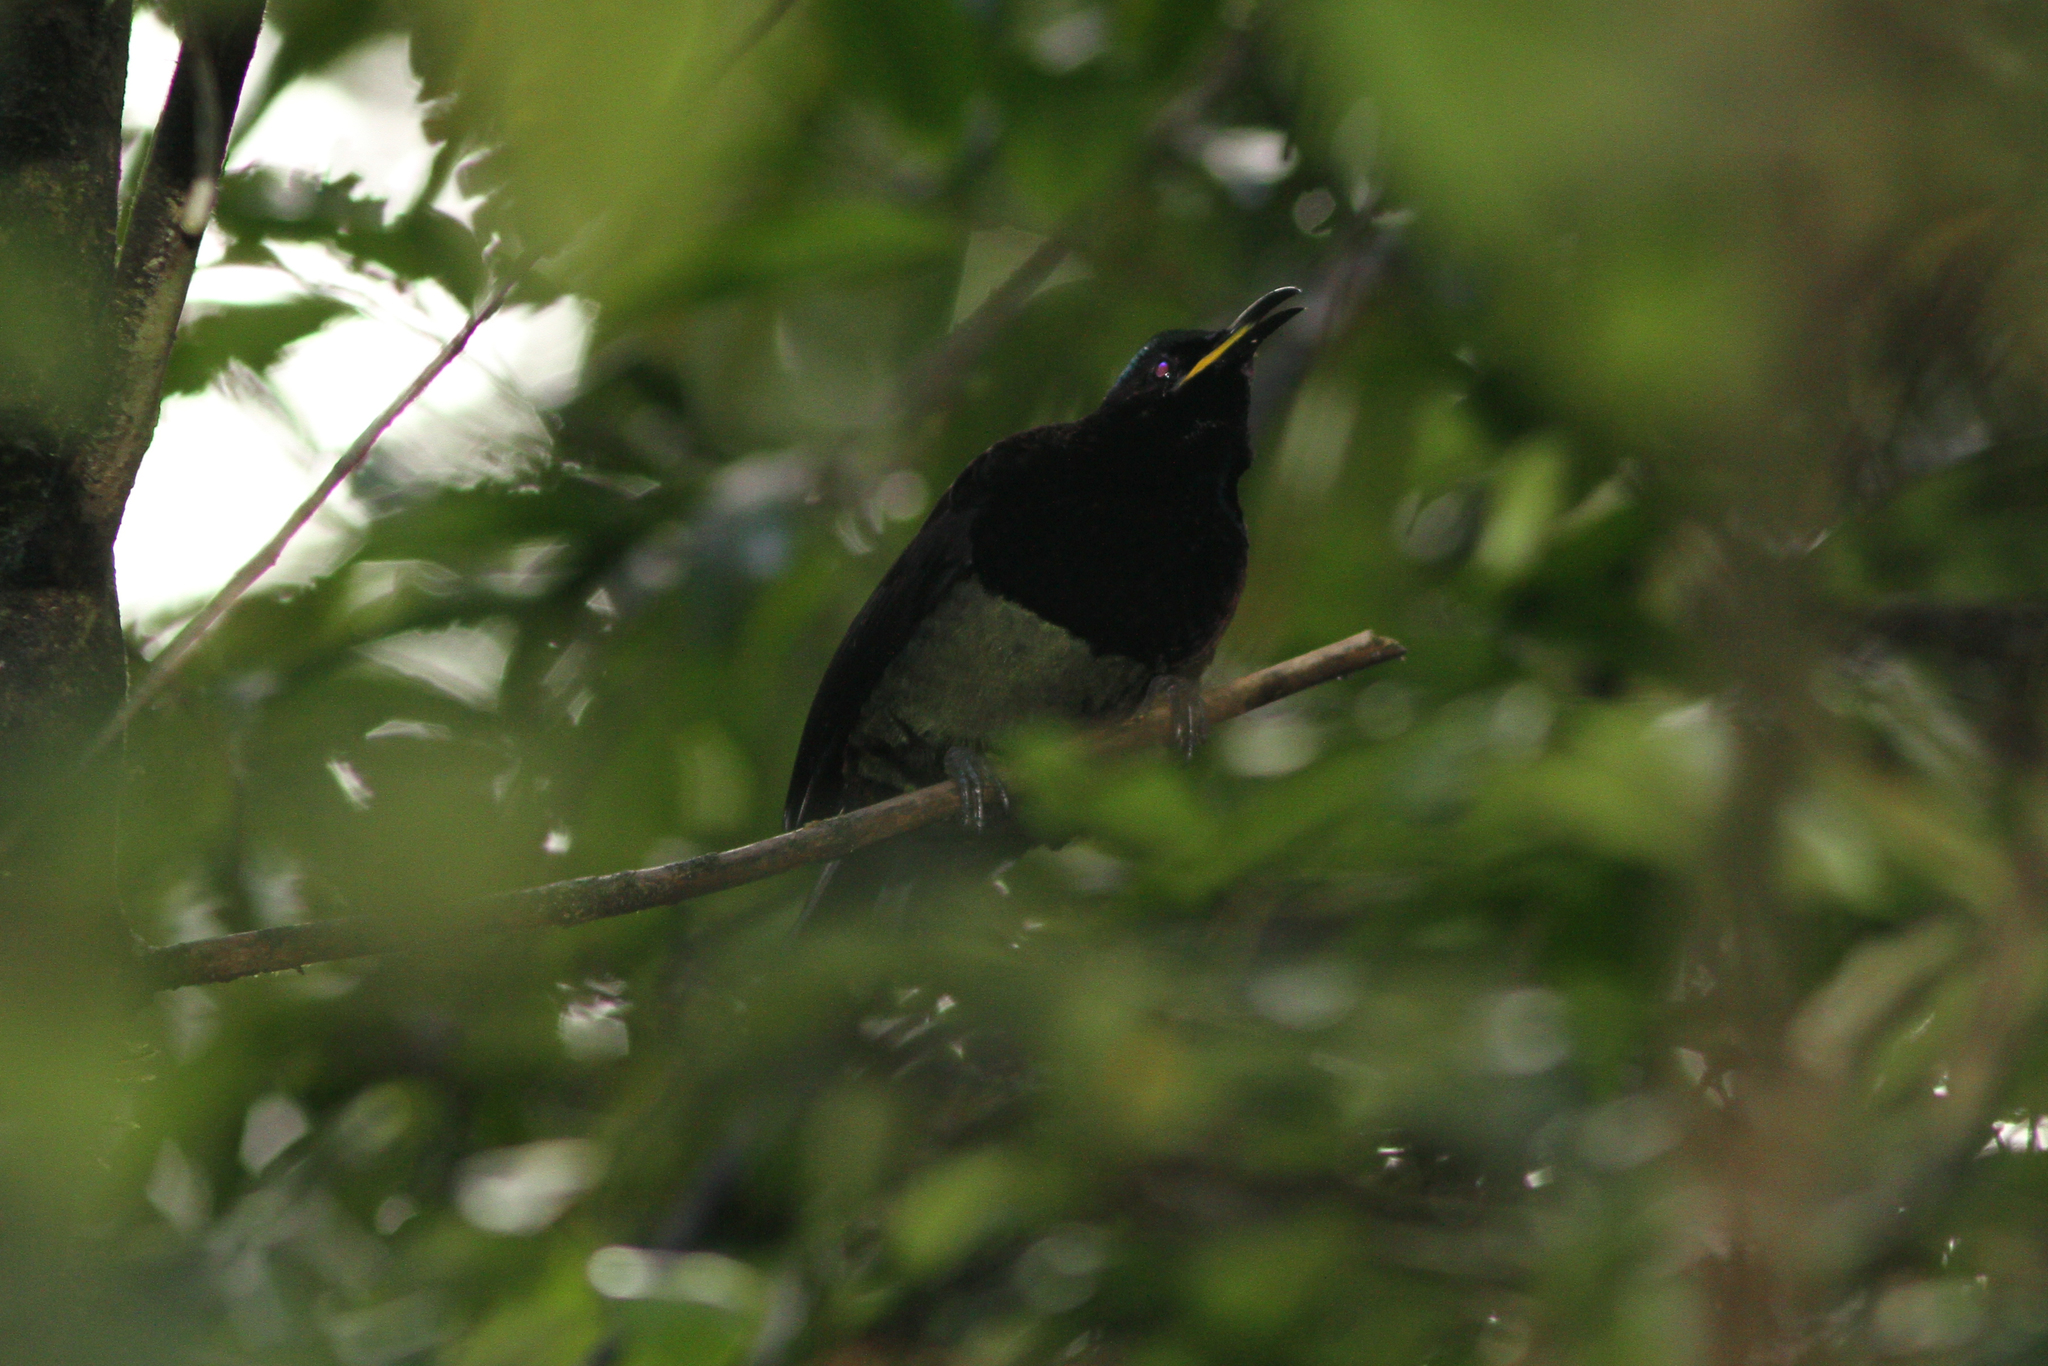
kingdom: Animalia
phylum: Chordata
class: Aves
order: Passeriformes
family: Paradisaeidae
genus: Ptiloris
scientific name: Ptiloris victoriae
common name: Victoria's riflebird
